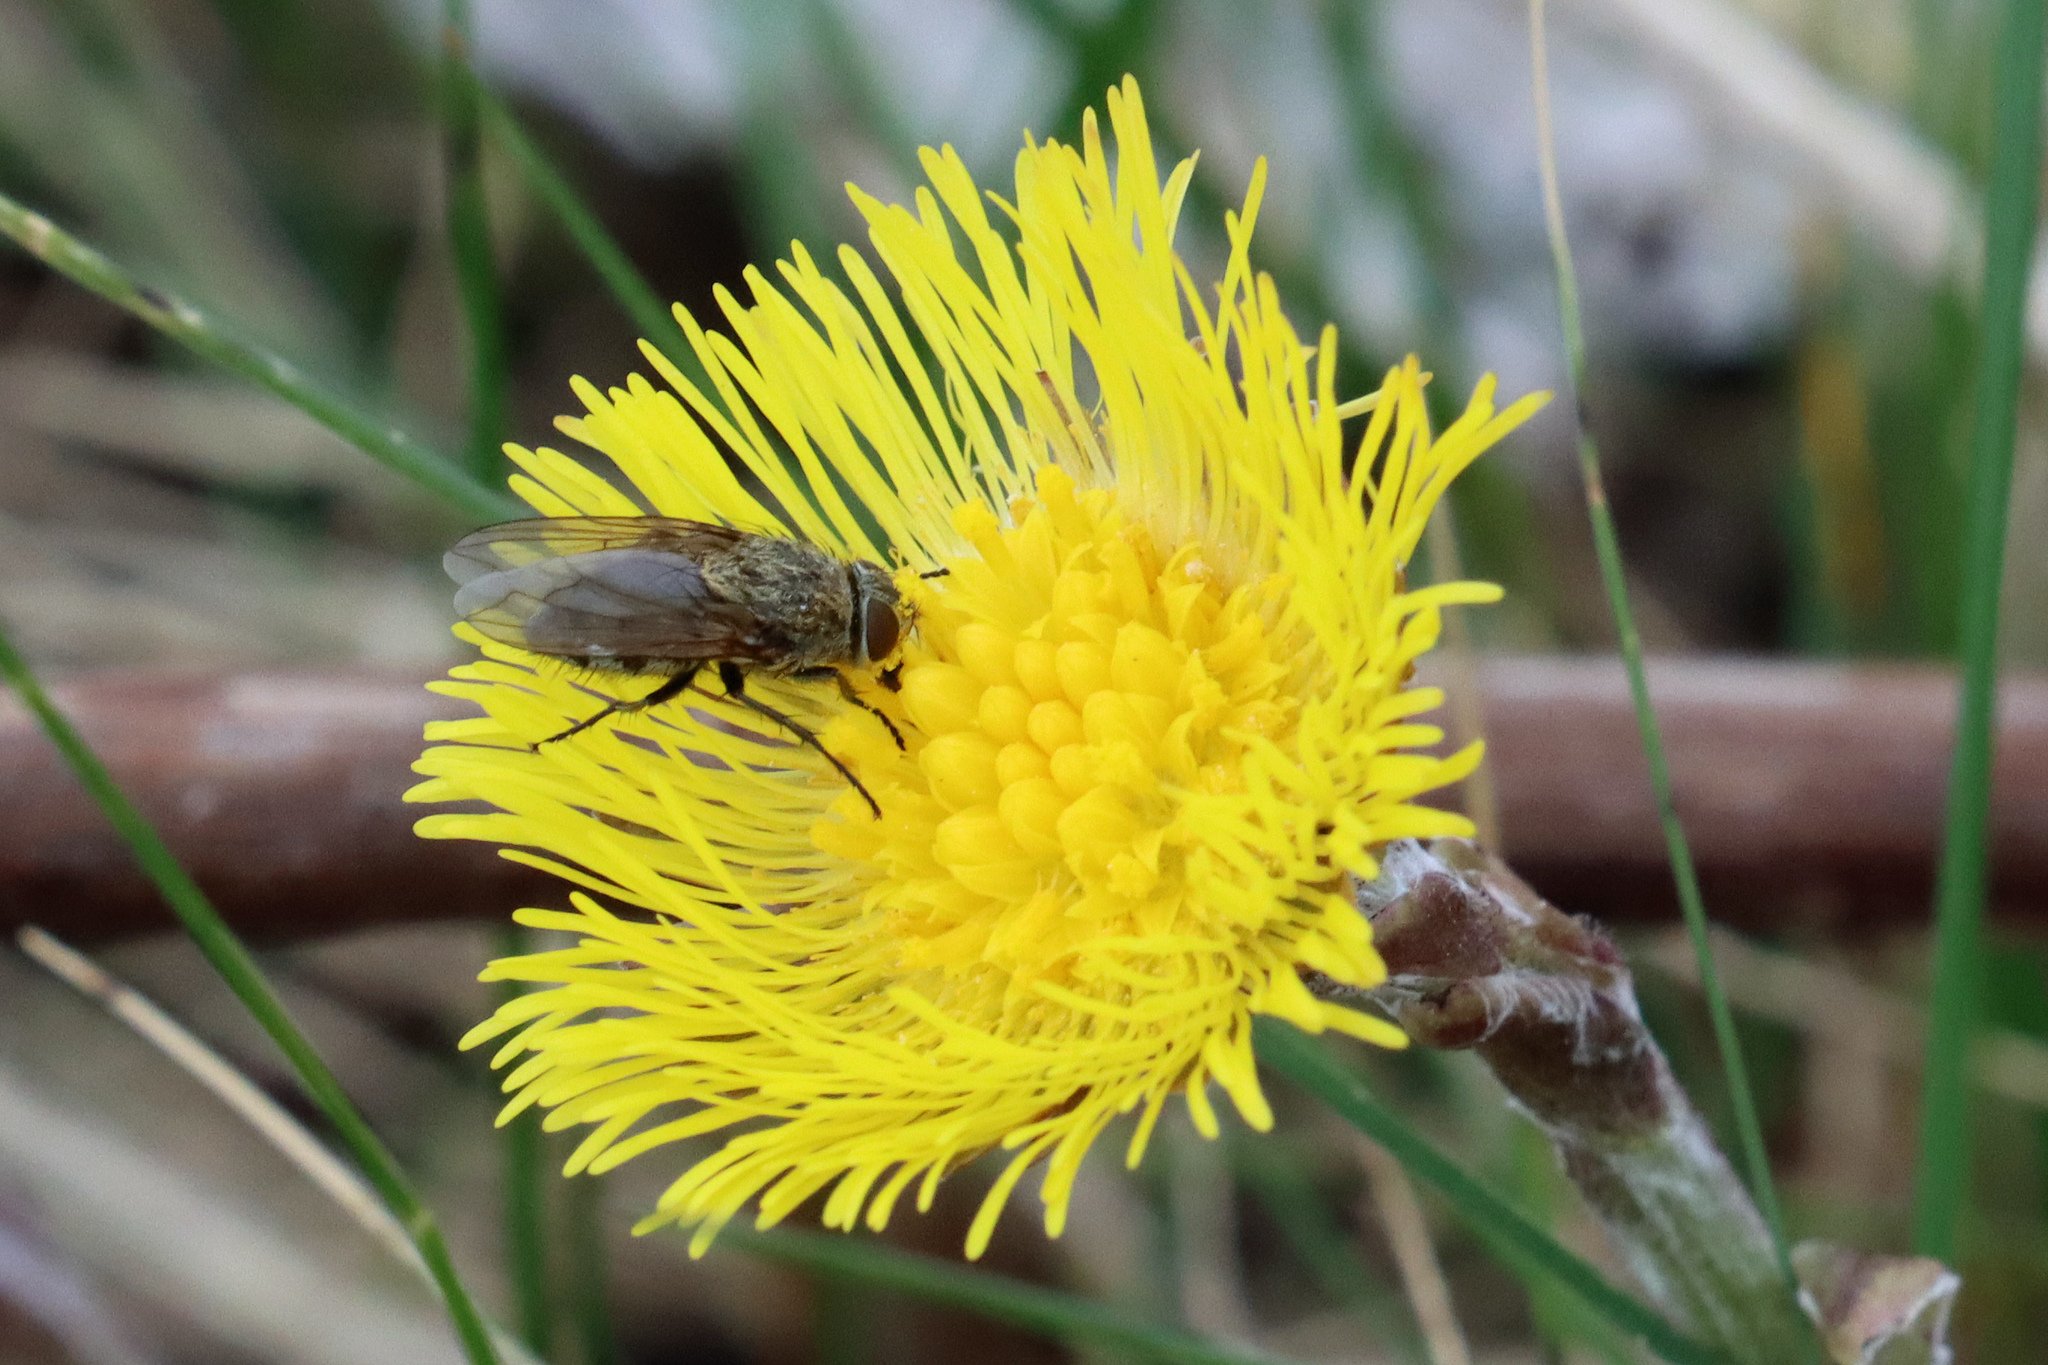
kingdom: Animalia
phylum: Arthropoda
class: Insecta
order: Diptera
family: Polleniidae
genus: Pollenia
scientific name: Pollenia
